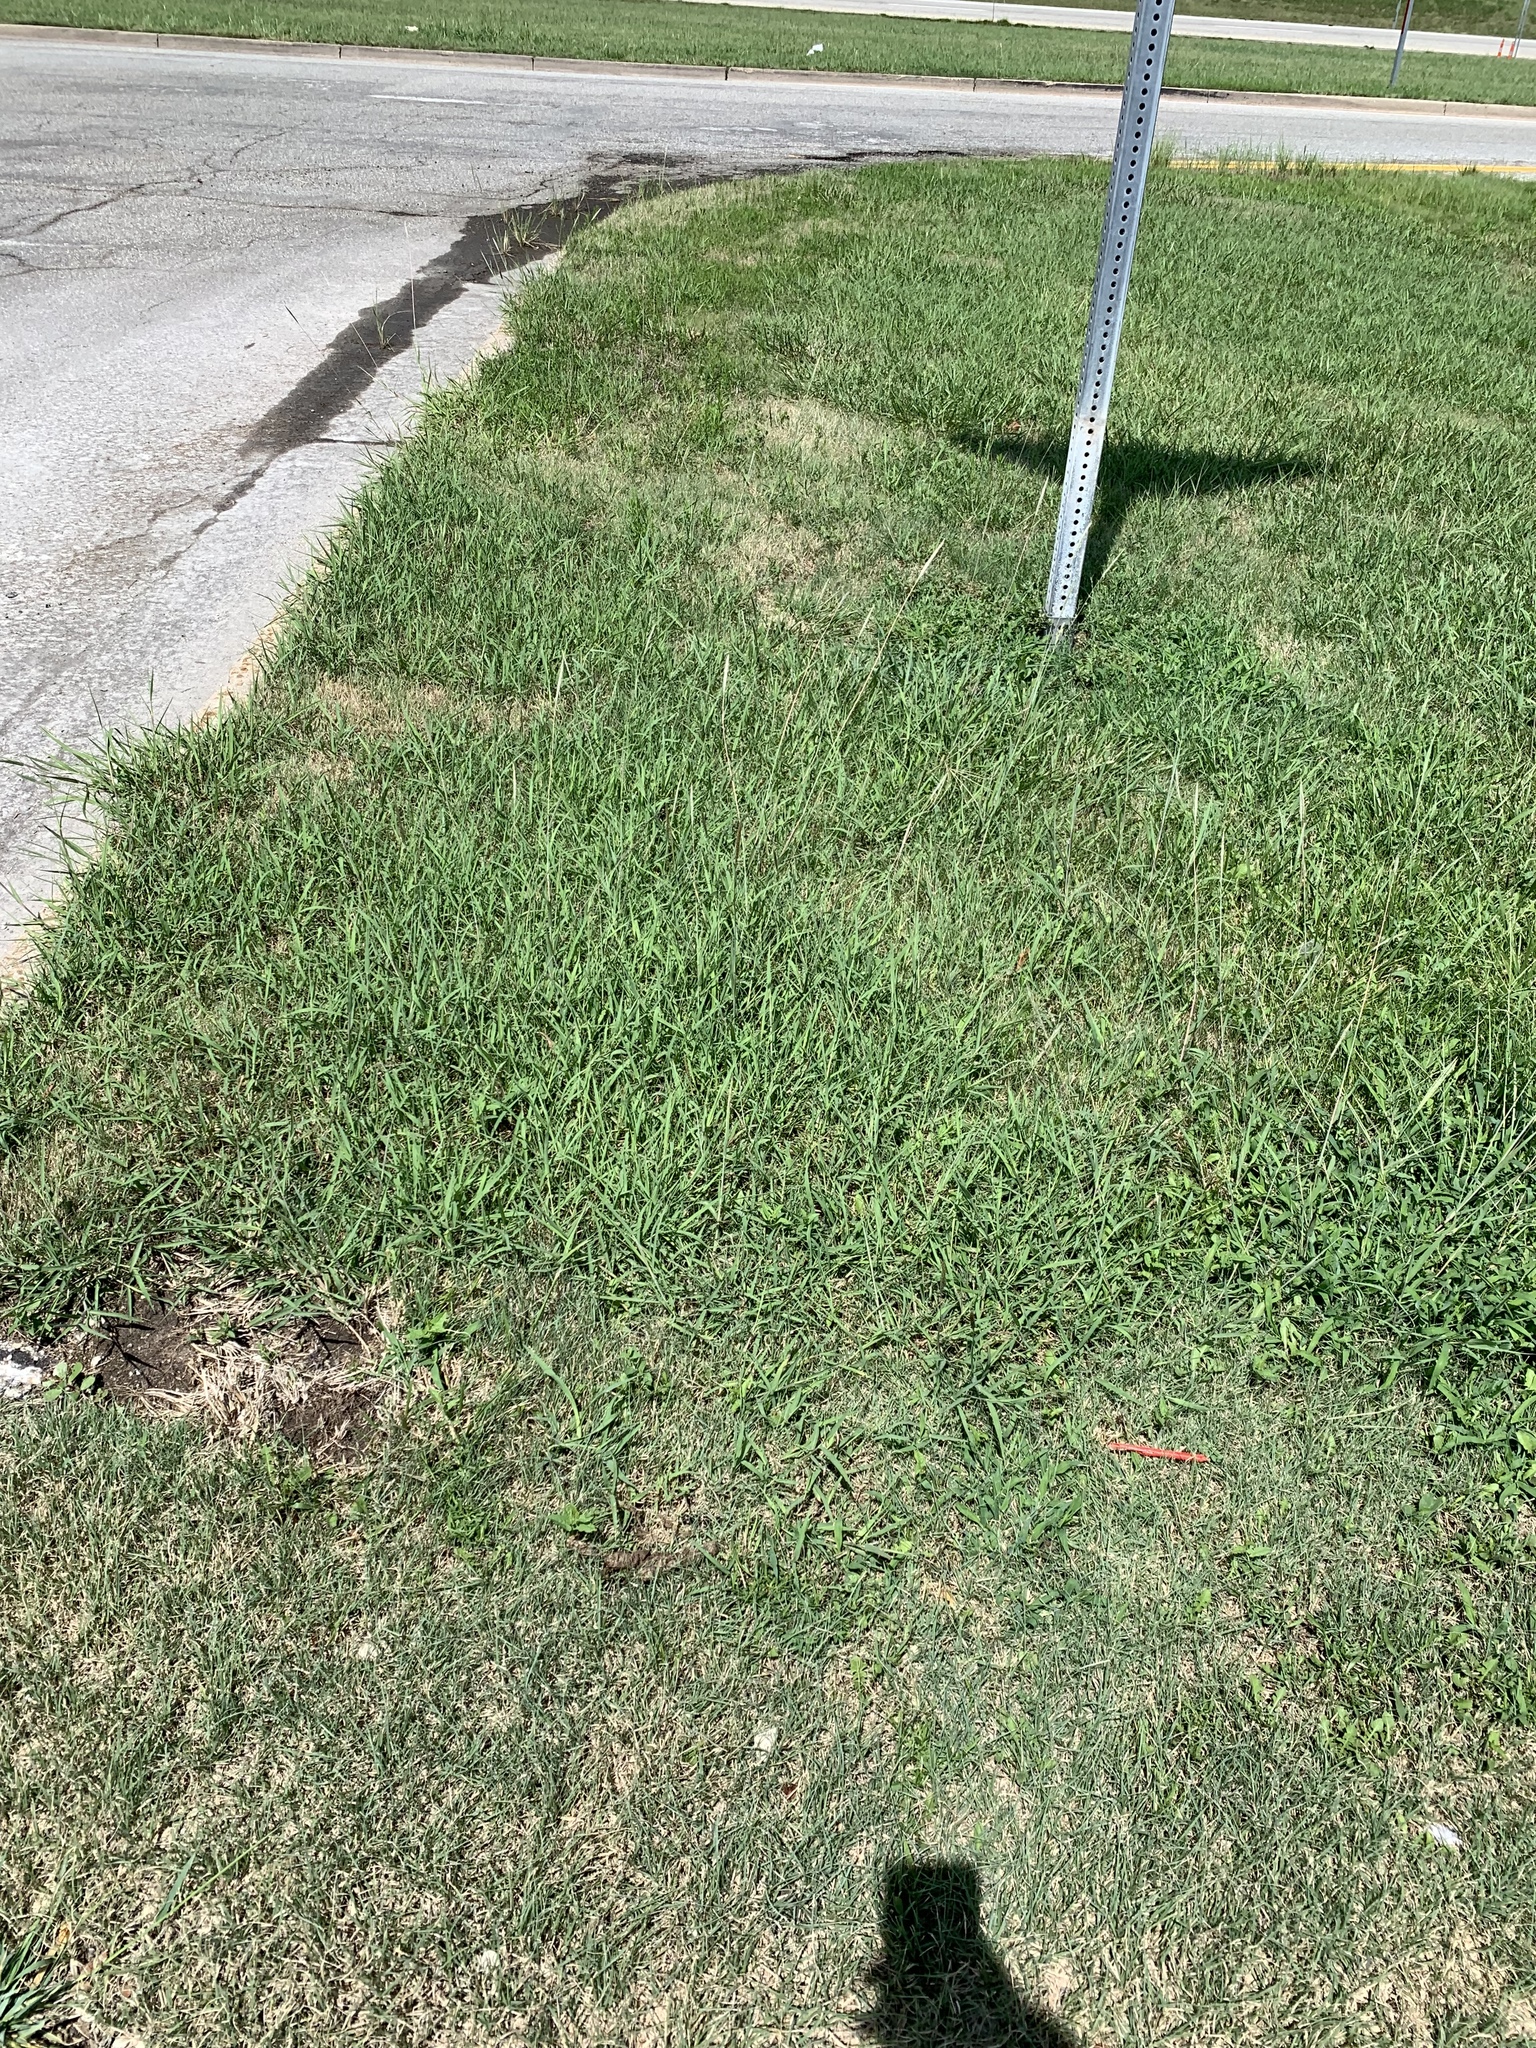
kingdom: Plantae
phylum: Tracheophyta
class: Liliopsida
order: Poales
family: Poaceae
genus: Bothriochloa
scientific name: Bothriochloa torreyana
